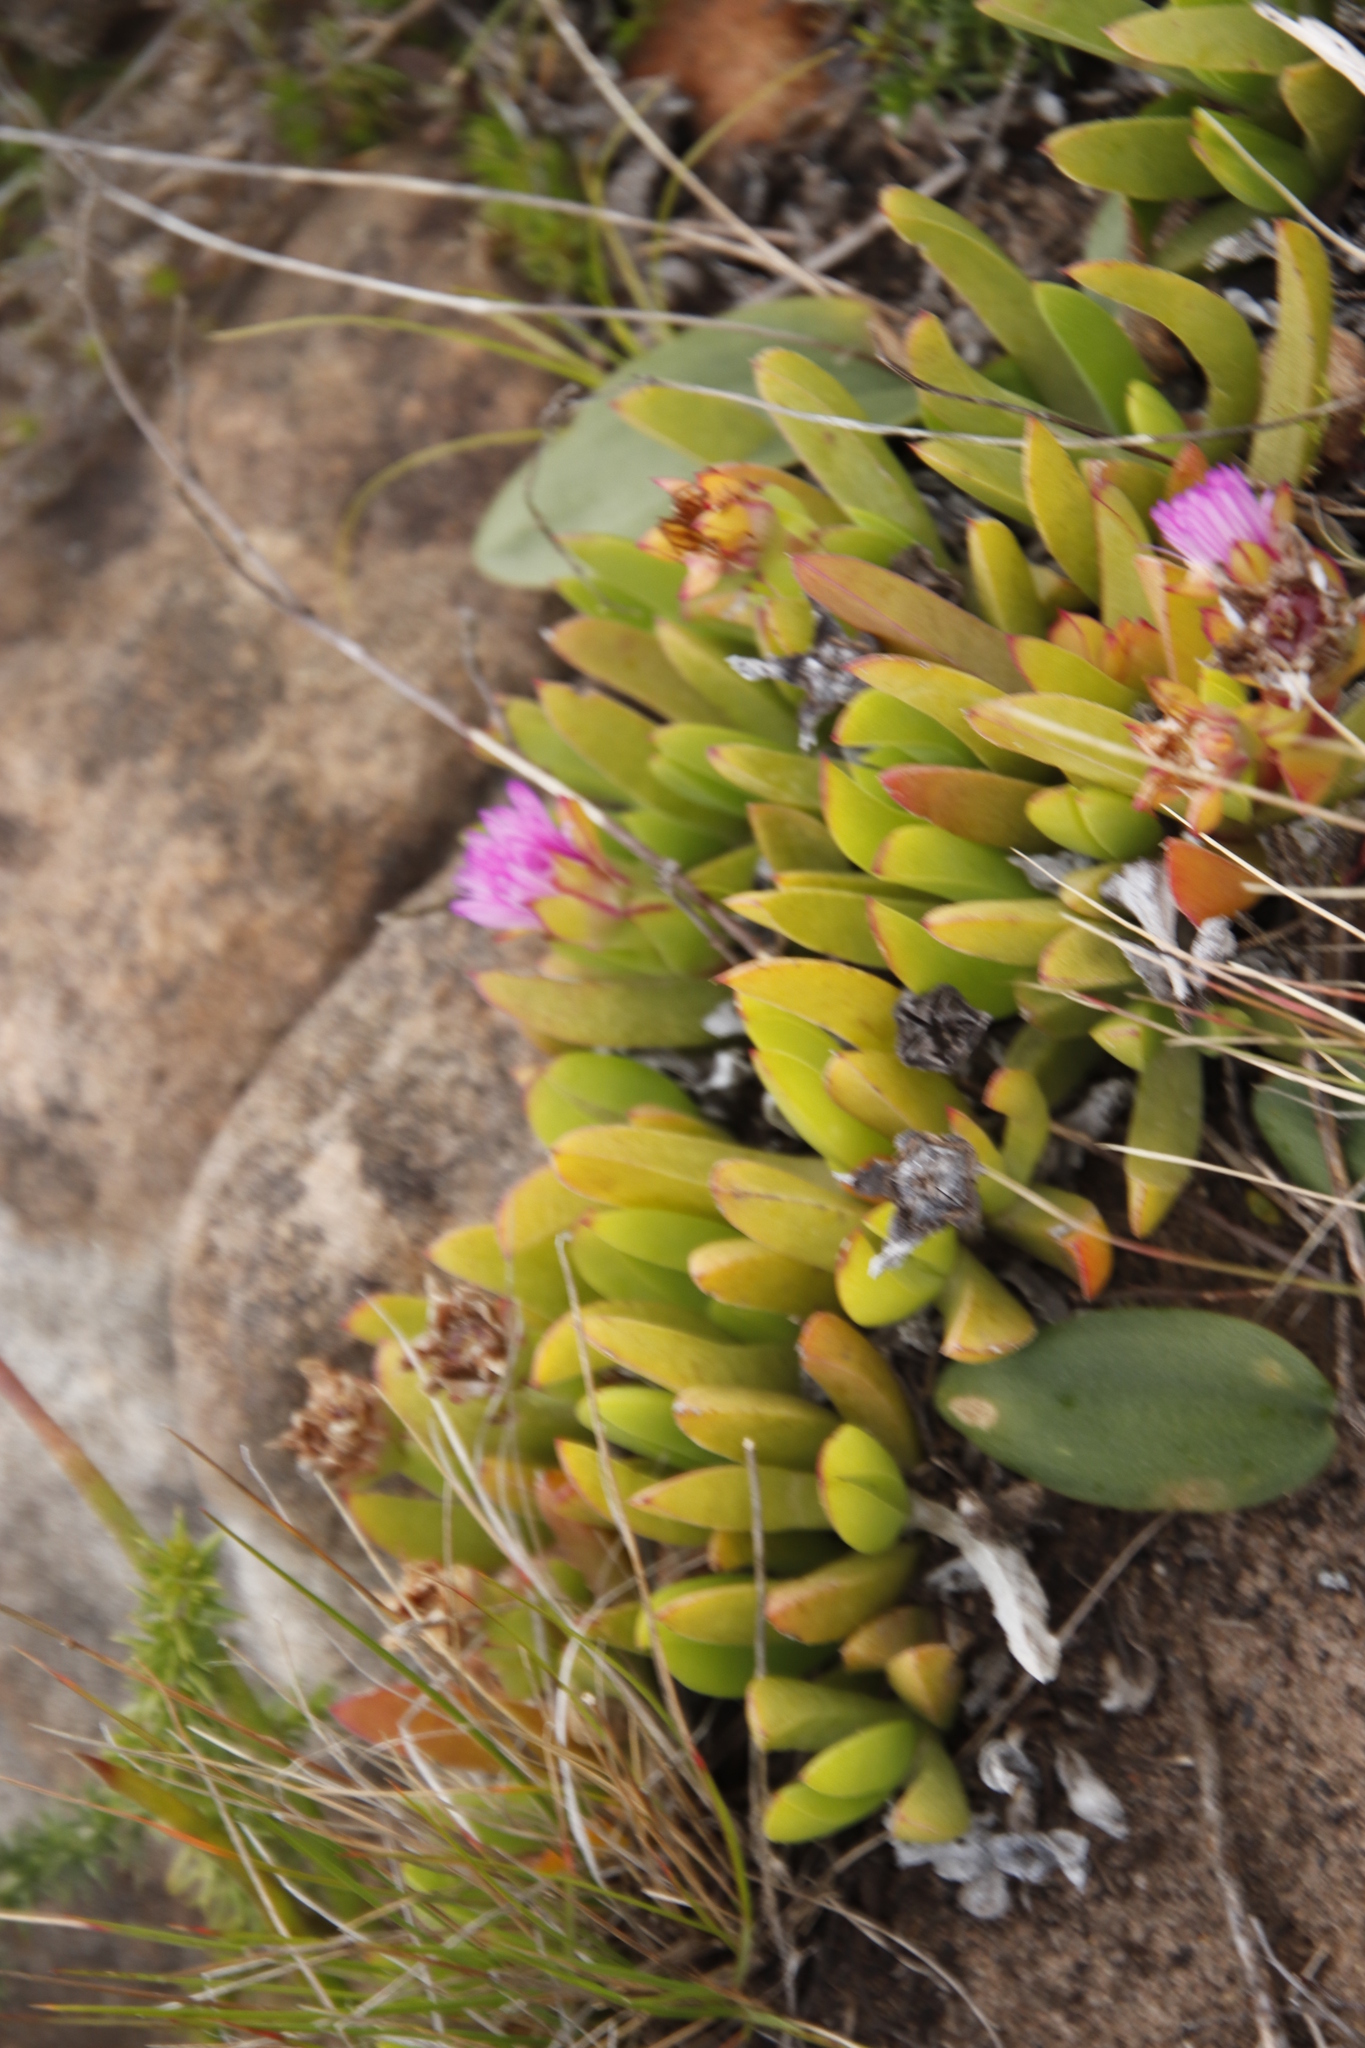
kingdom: Plantae
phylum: Tracheophyta
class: Magnoliopsida
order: Caryophyllales
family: Aizoaceae
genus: Ruschia
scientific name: Ruschia rubricaulis
